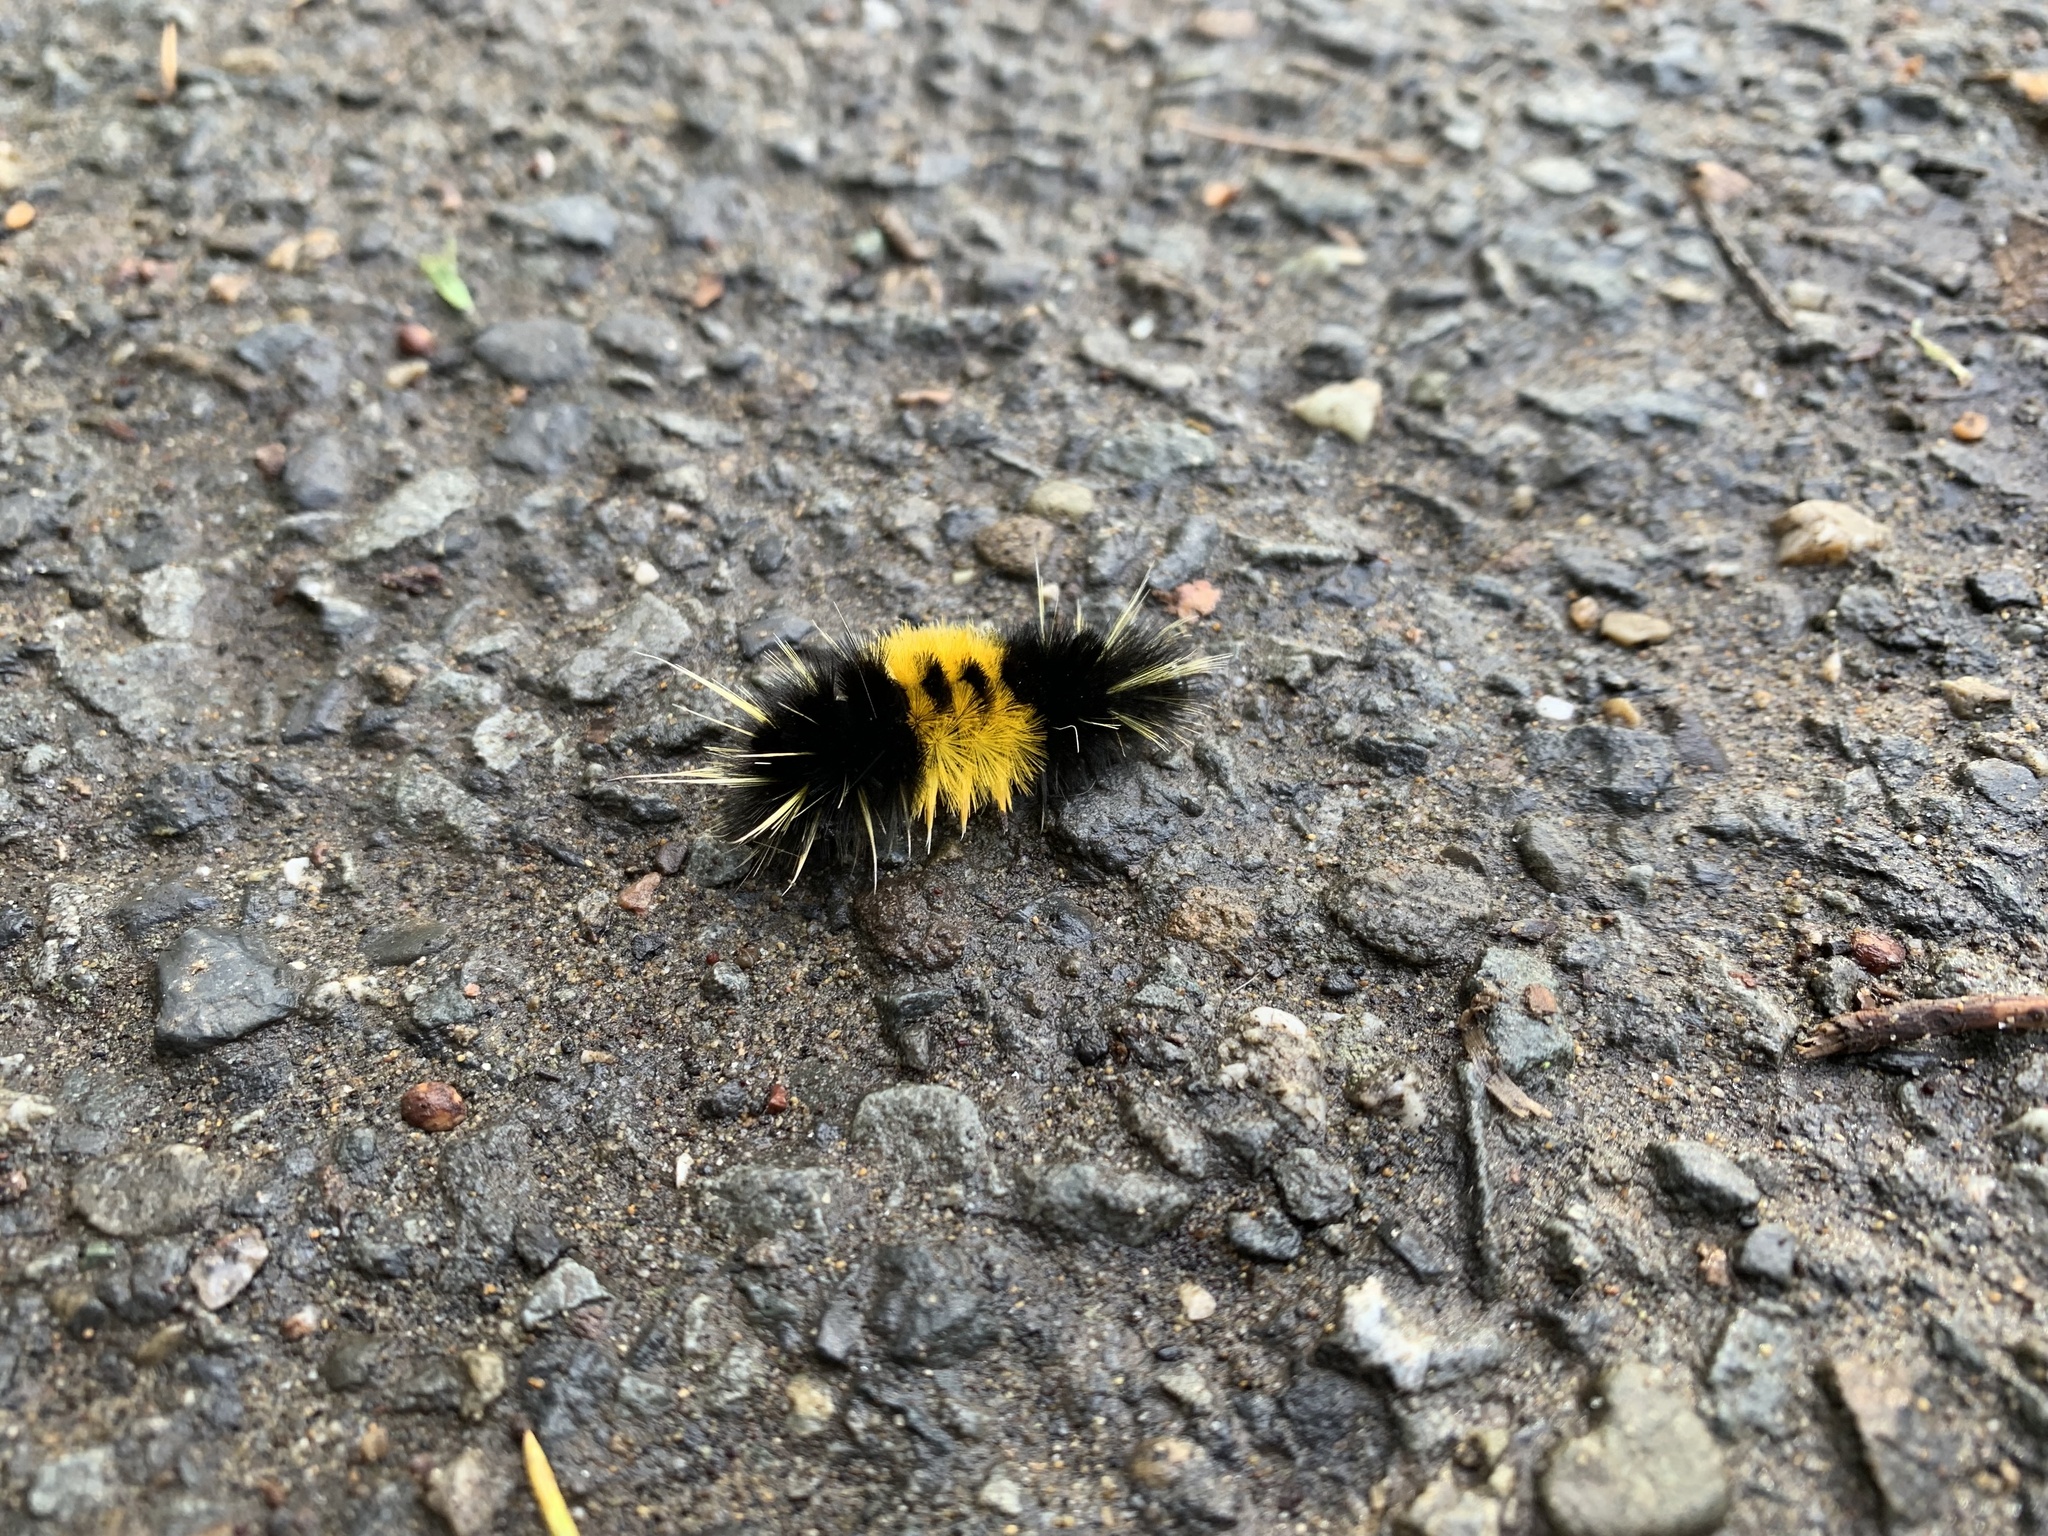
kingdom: Animalia
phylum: Arthropoda
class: Insecta
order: Lepidoptera
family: Erebidae
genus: Lophocampa
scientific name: Lophocampa maculata
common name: Spotted tussock moth
